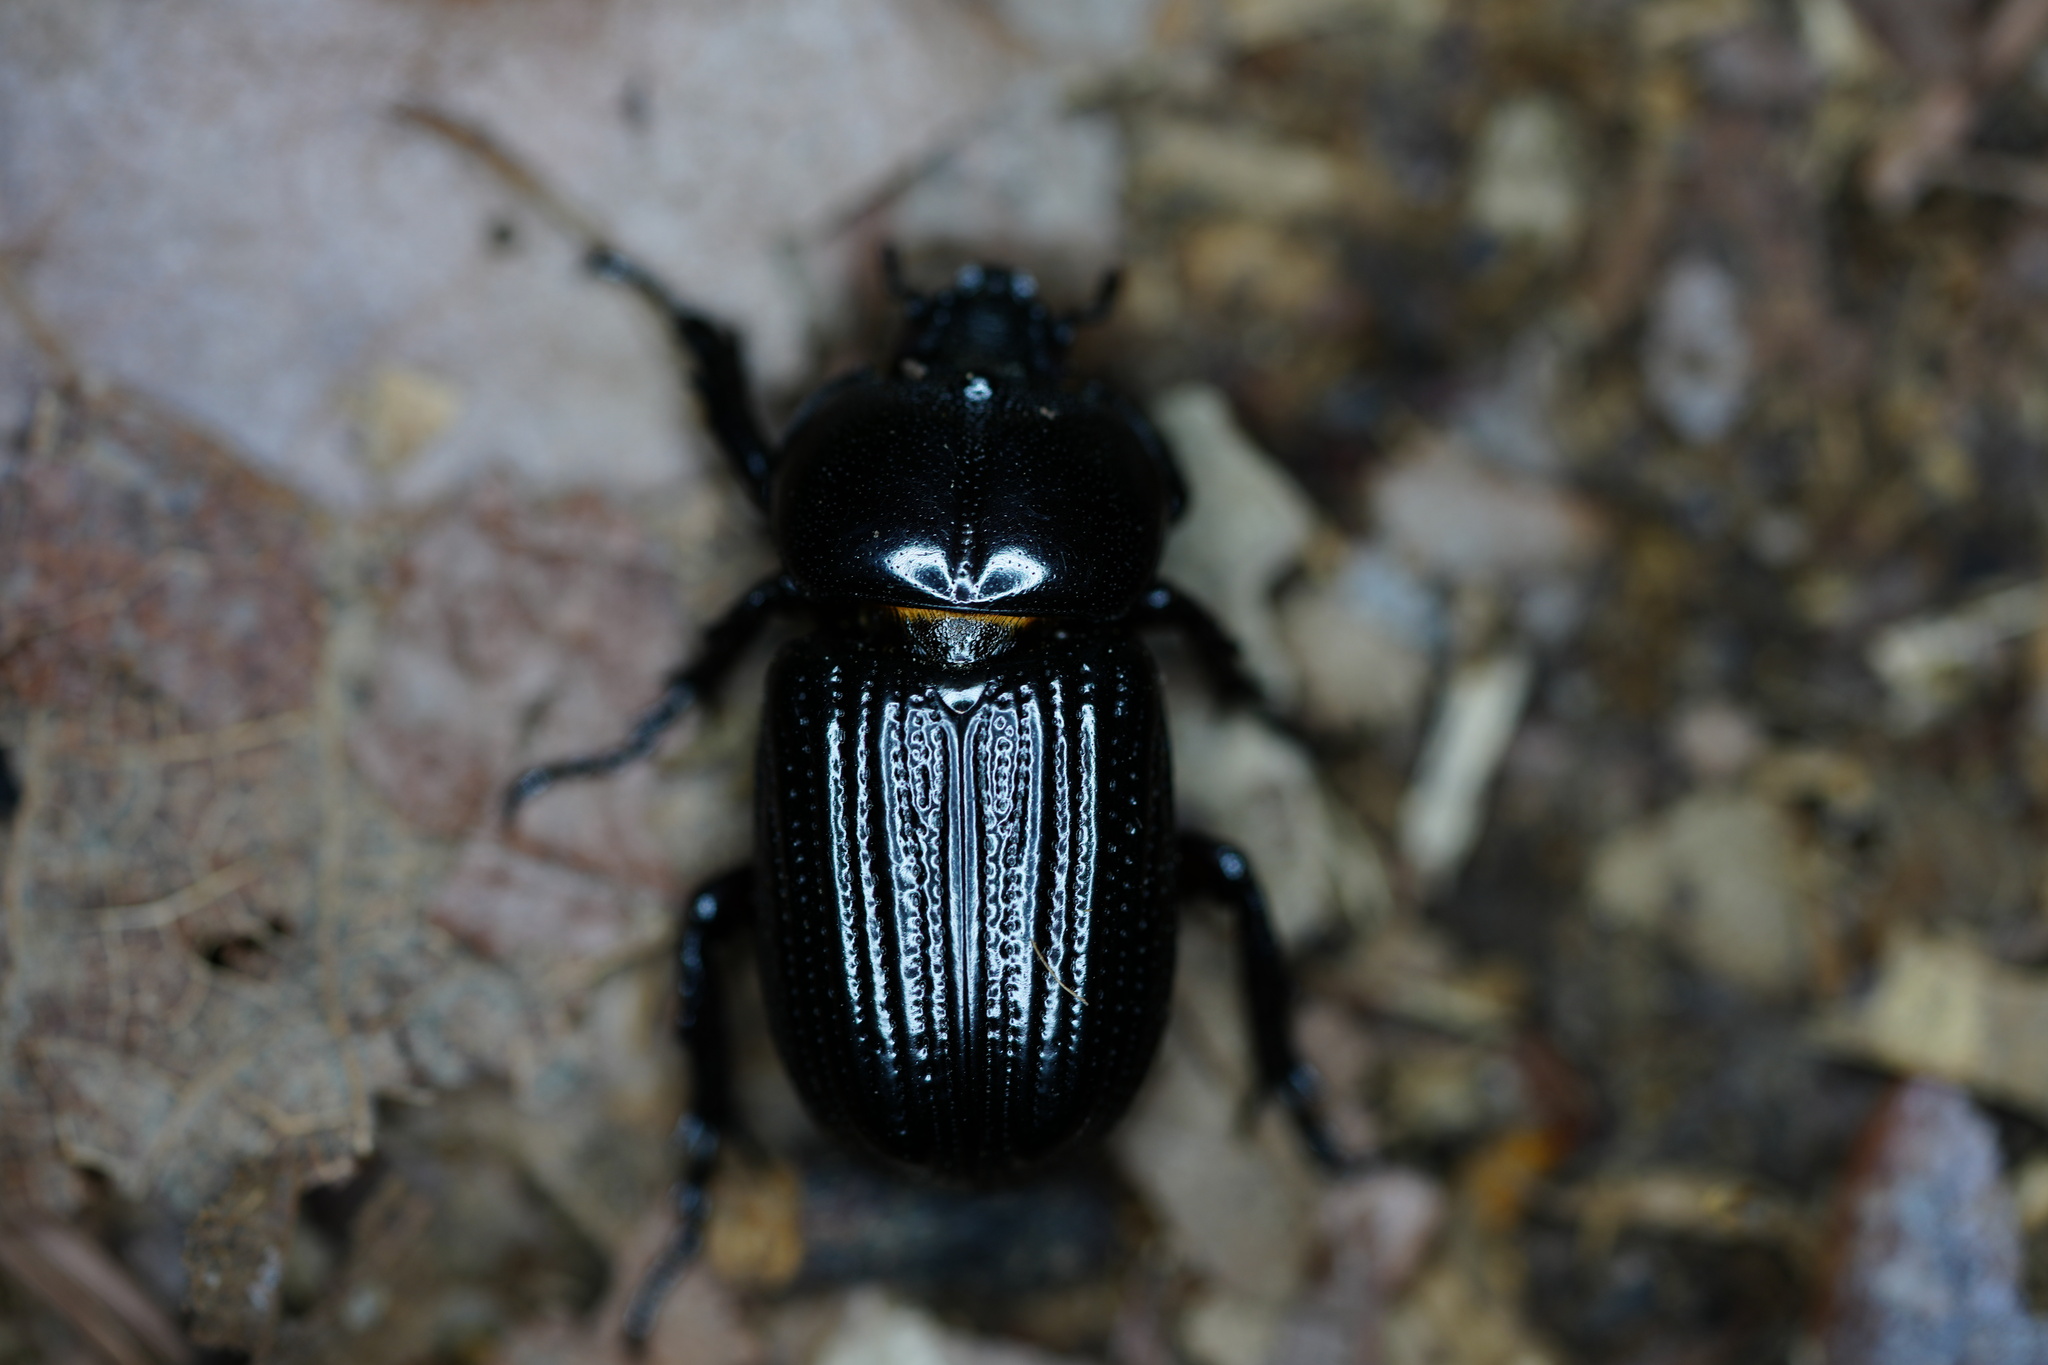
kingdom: Animalia
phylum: Arthropoda
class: Insecta
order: Coleoptera
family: Scarabaeidae
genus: Phileurus
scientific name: Phileurus valgus
